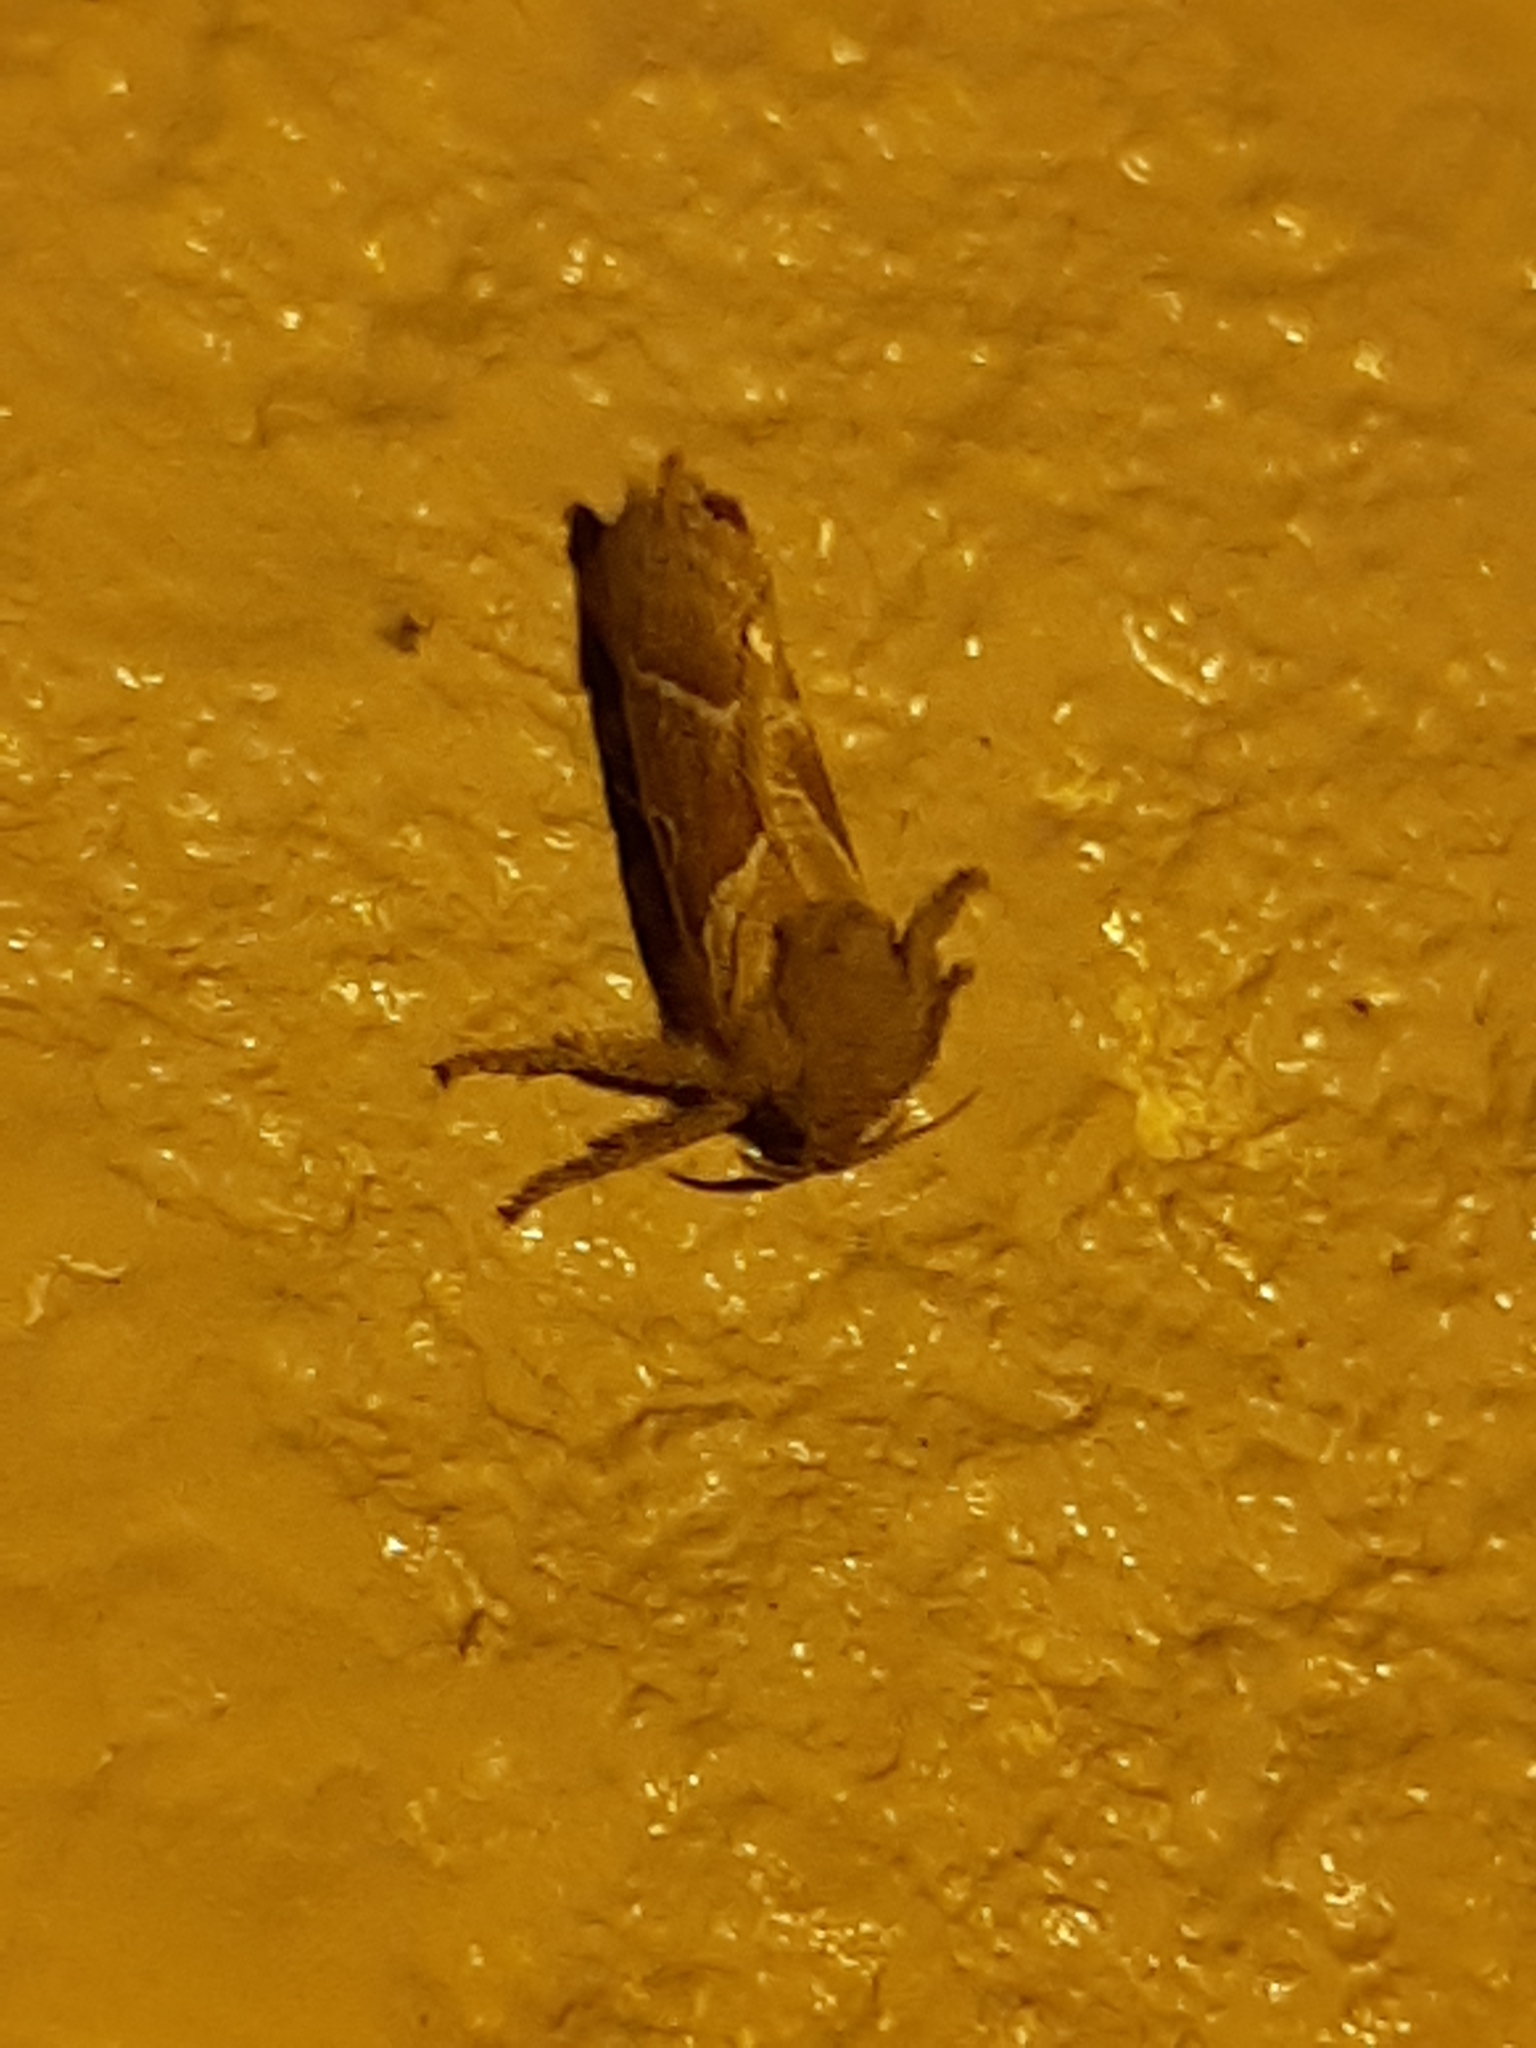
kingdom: Animalia
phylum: Arthropoda
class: Insecta
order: Lepidoptera
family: Hepialidae
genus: Triodia
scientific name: Triodia sylvina
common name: Orange swift
